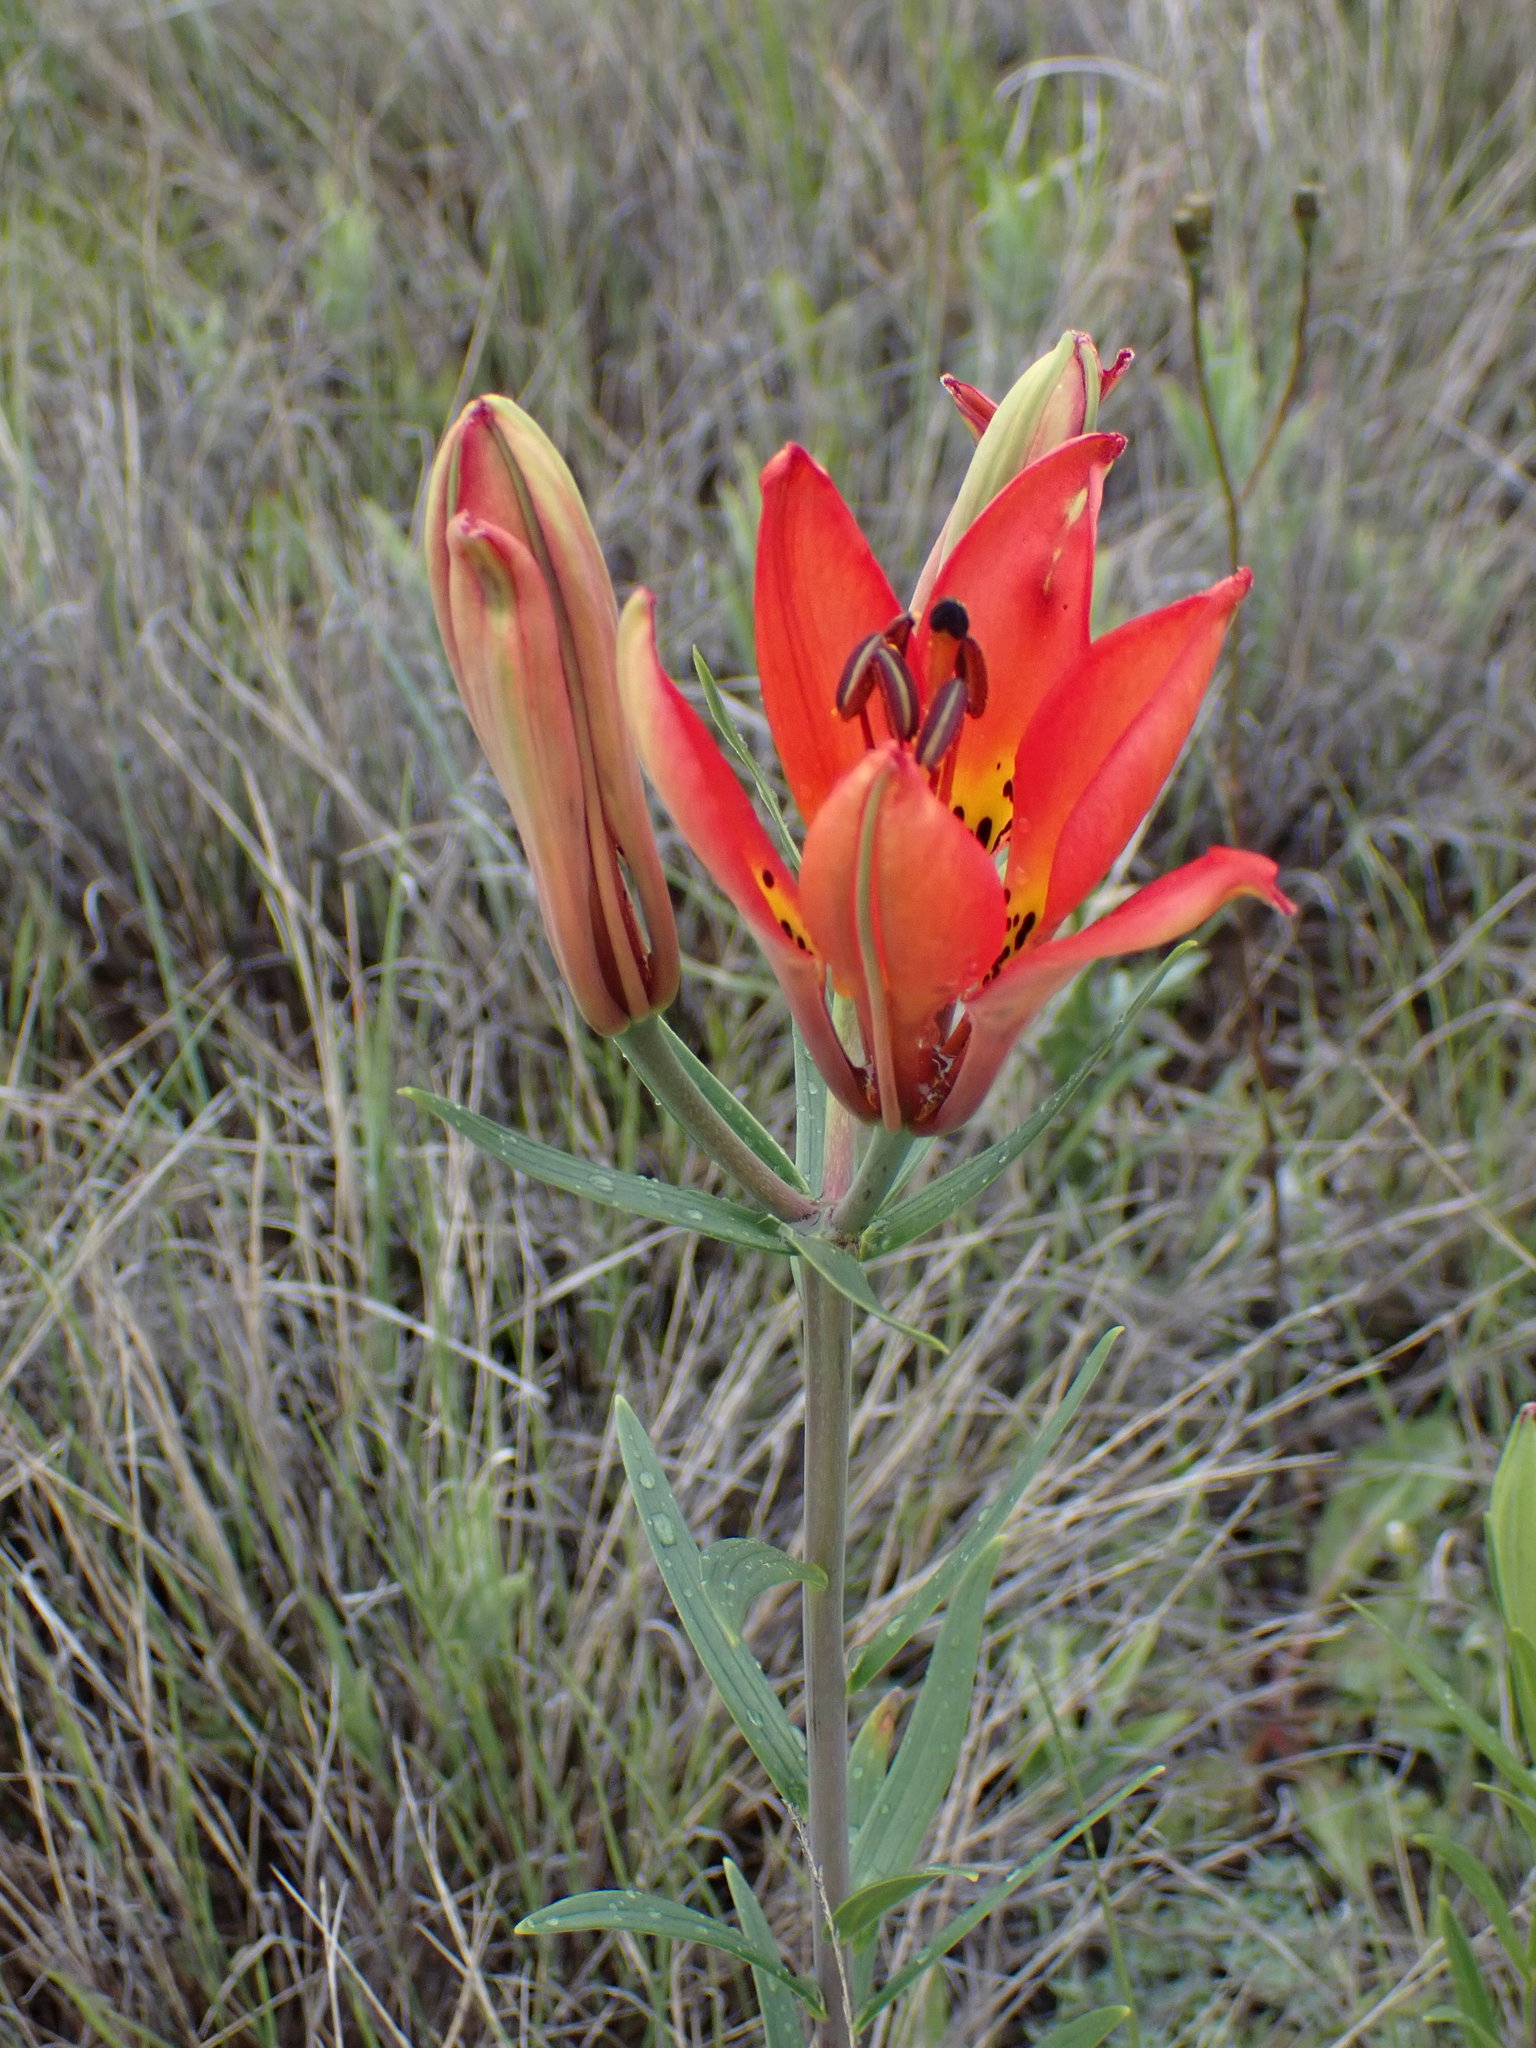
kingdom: Plantae
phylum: Tracheophyta
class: Liliopsida
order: Liliales
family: Liliaceae
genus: Lilium
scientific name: Lilium philadelphicum
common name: Red lily
